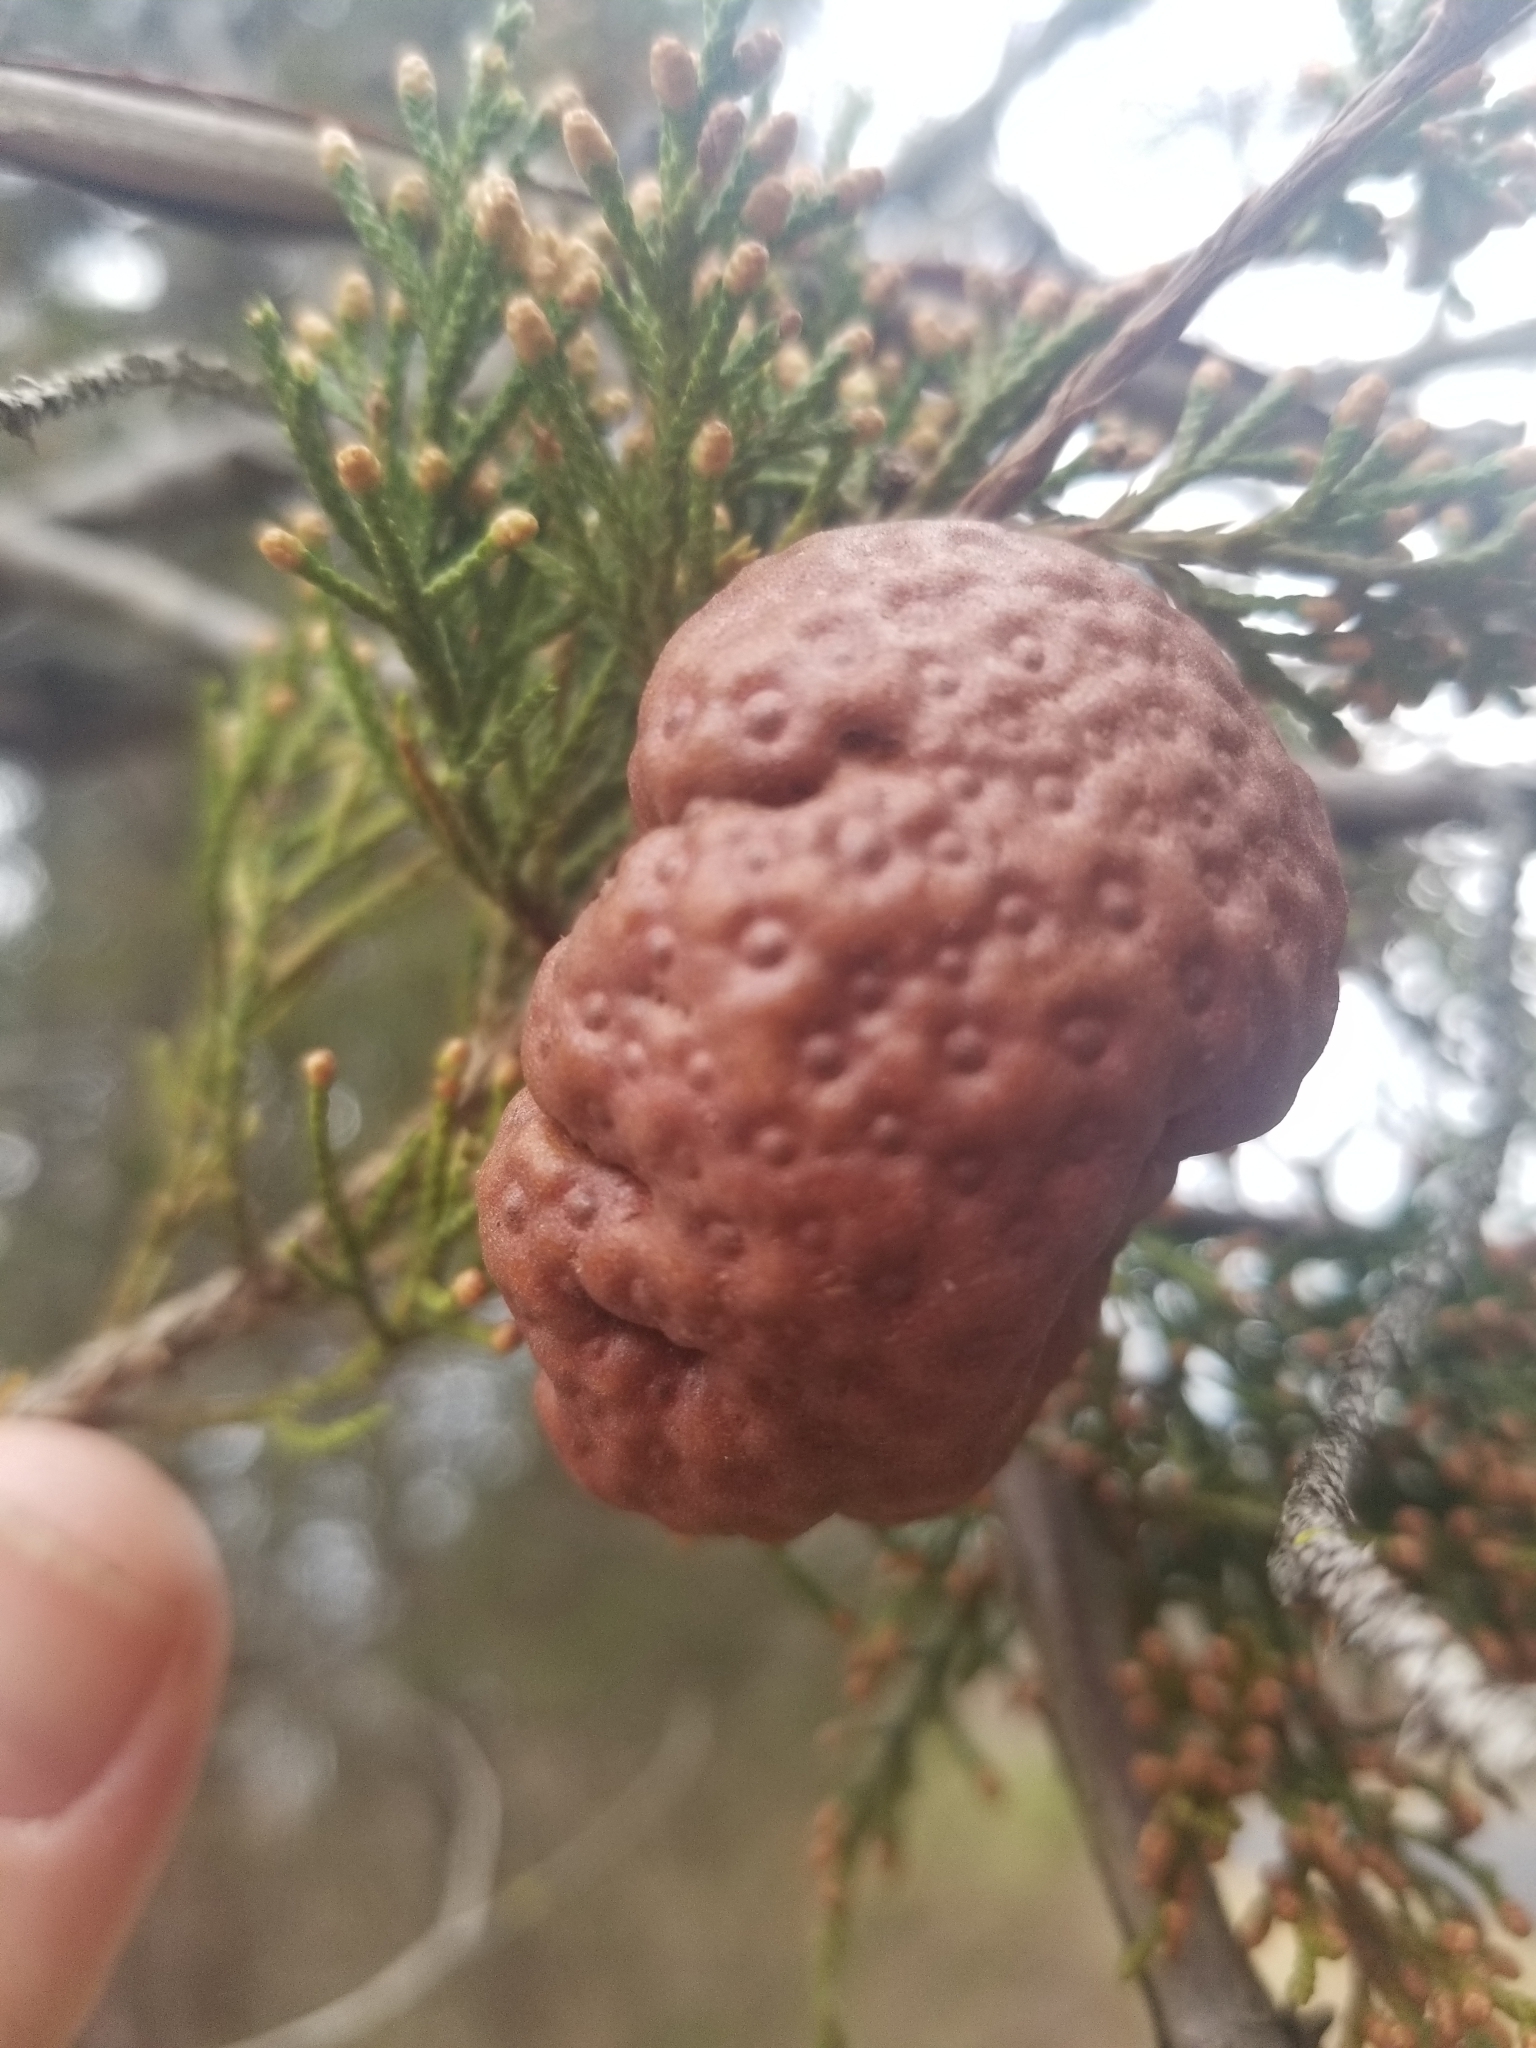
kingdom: Fungi
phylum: Basidiomycota
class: Pucciniomycetes
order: Pucciniales
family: Gymnosporangiaceae
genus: Gymnosporangium
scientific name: Gymnosporangium juniperi-virginianae
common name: Juniper-apple rust
